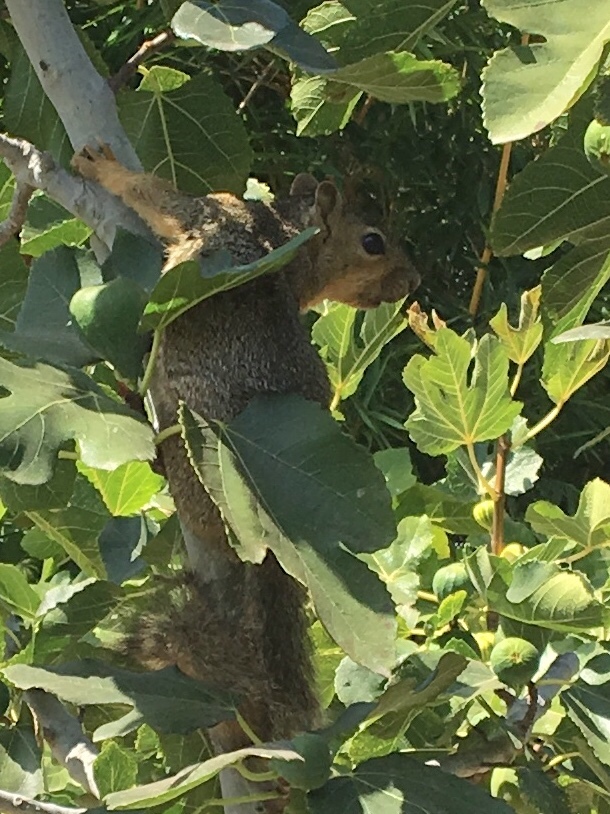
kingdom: Animalia
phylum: Chordata
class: Mammalia
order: Rodentia
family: Sciuridae
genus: Sciurus
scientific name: Sciurus niger
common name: Fox squirrel
